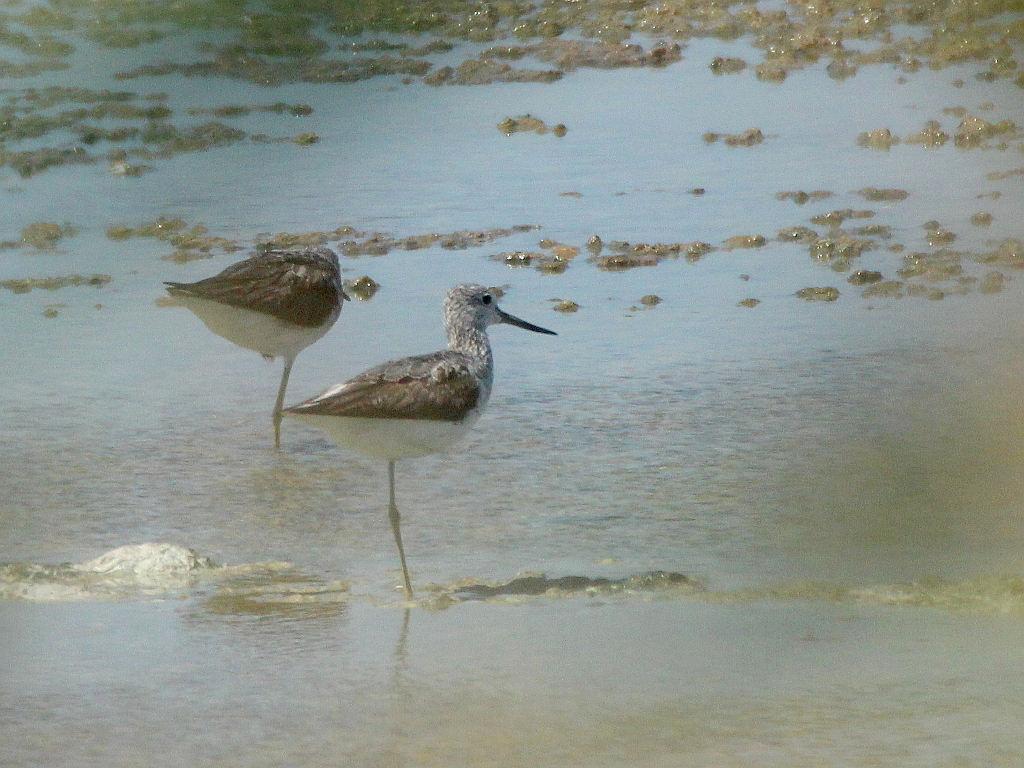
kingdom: Animalia
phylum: Chordata
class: Aves
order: Charadriiformes
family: Scolopacidae
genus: Tringa
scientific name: Tringa nebularia
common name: Common greenshank
